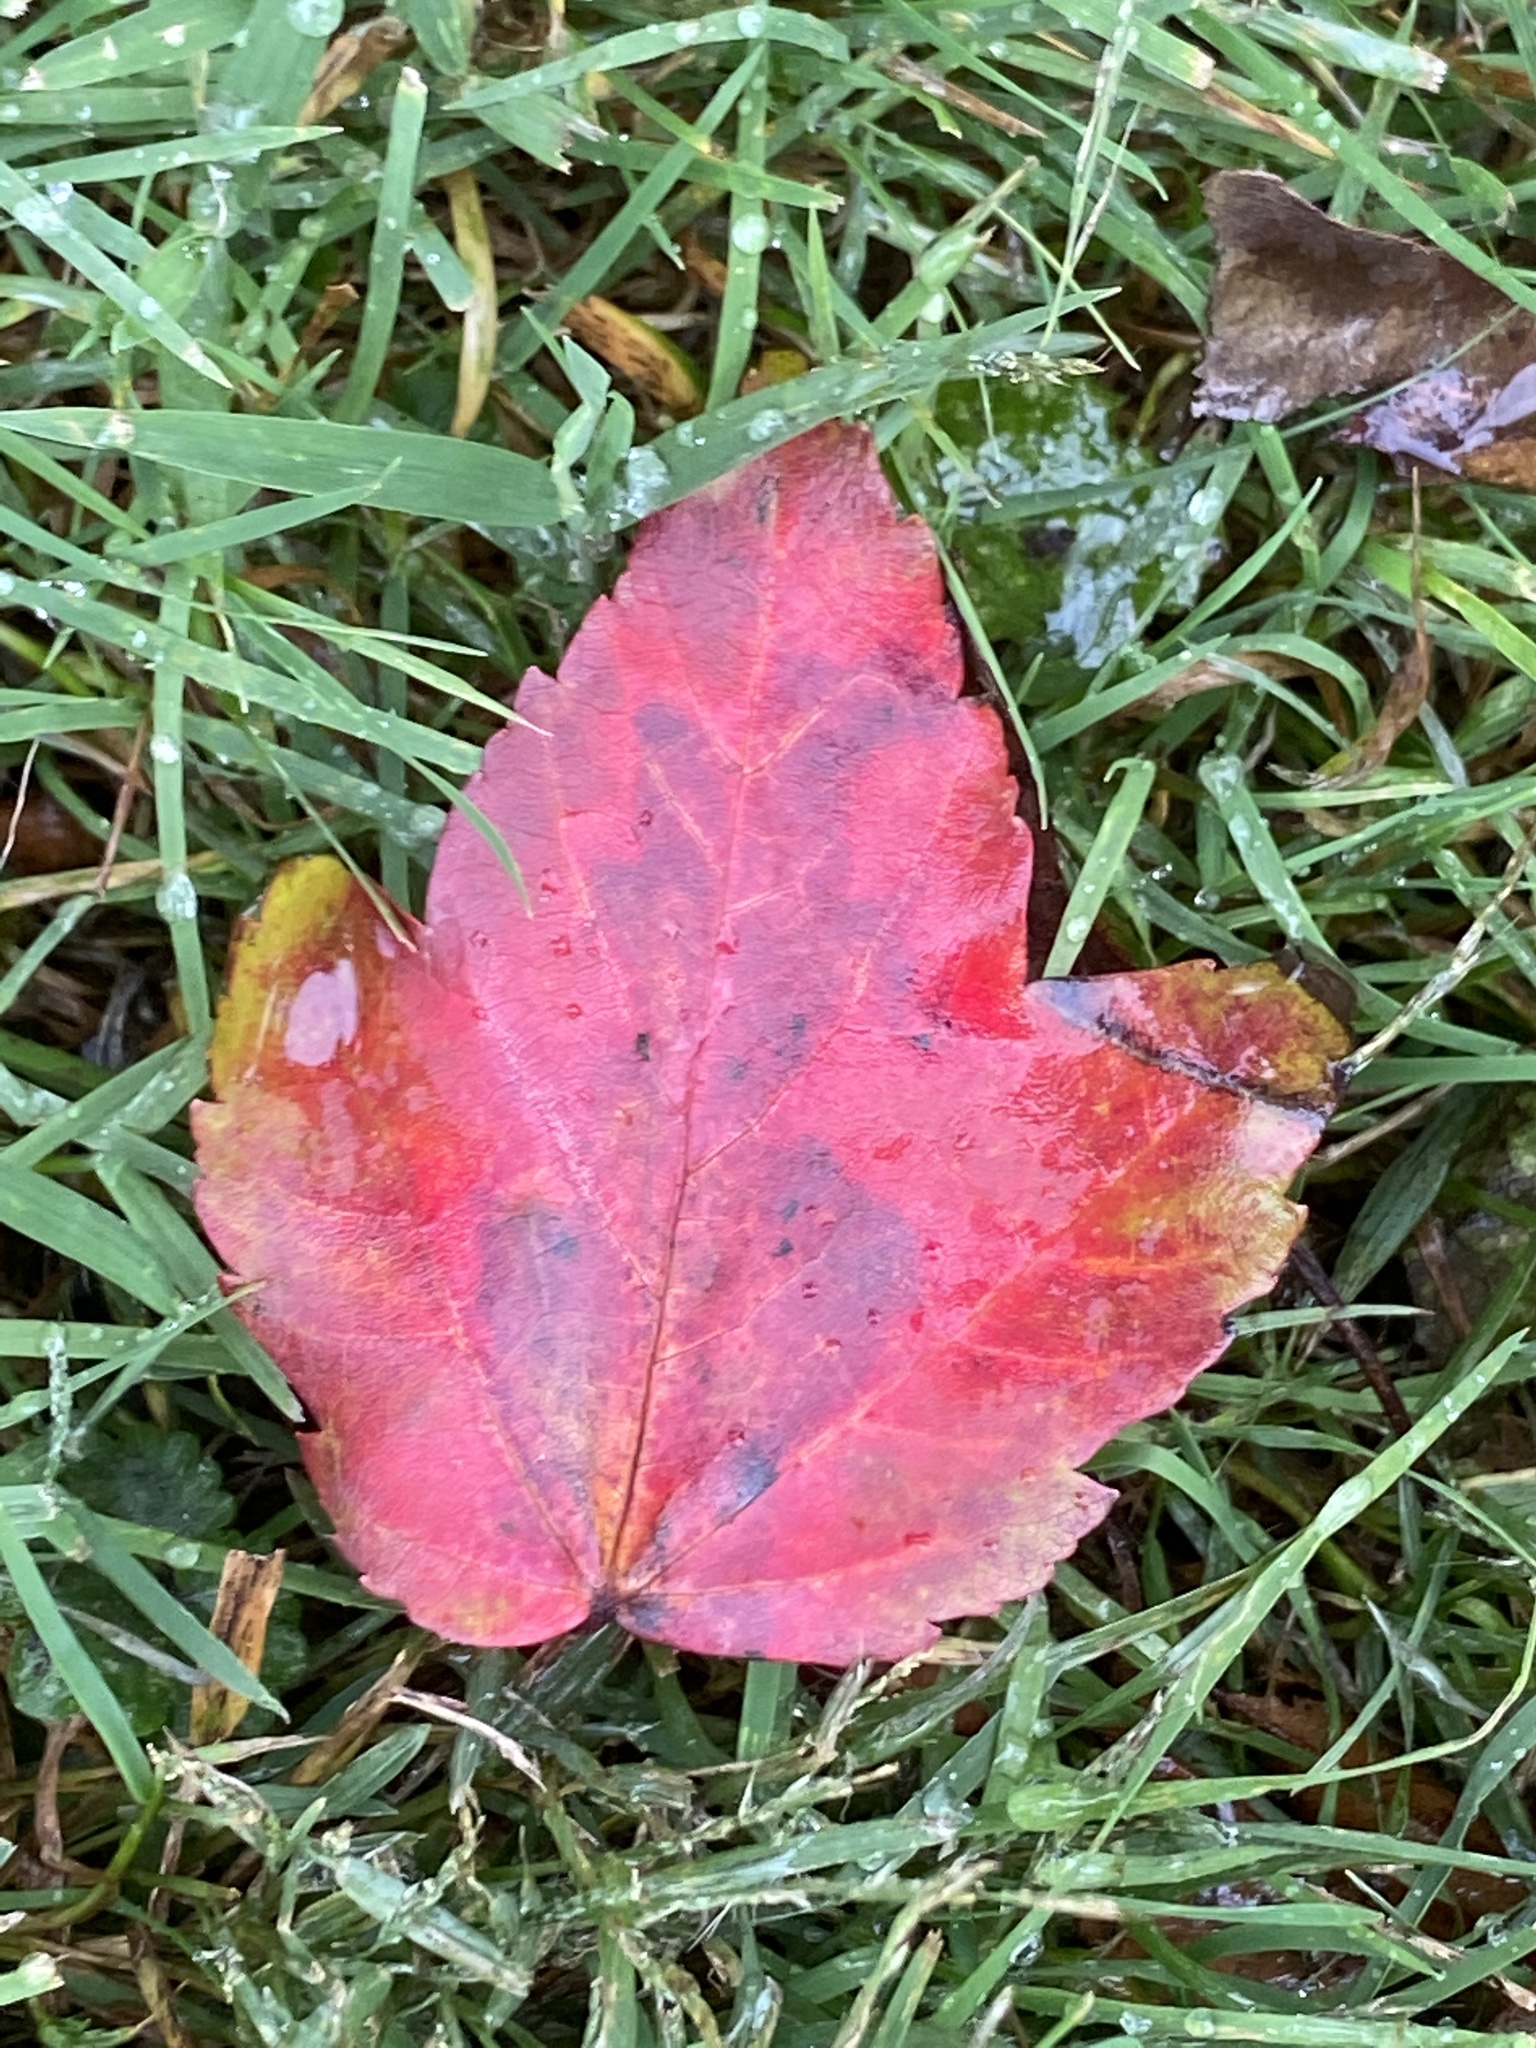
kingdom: Plantae
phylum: Tracheophyta
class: Magnoliopsida
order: Sapindales
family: Sapindaceae
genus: Acer
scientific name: Acer rubrum
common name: Red maple
